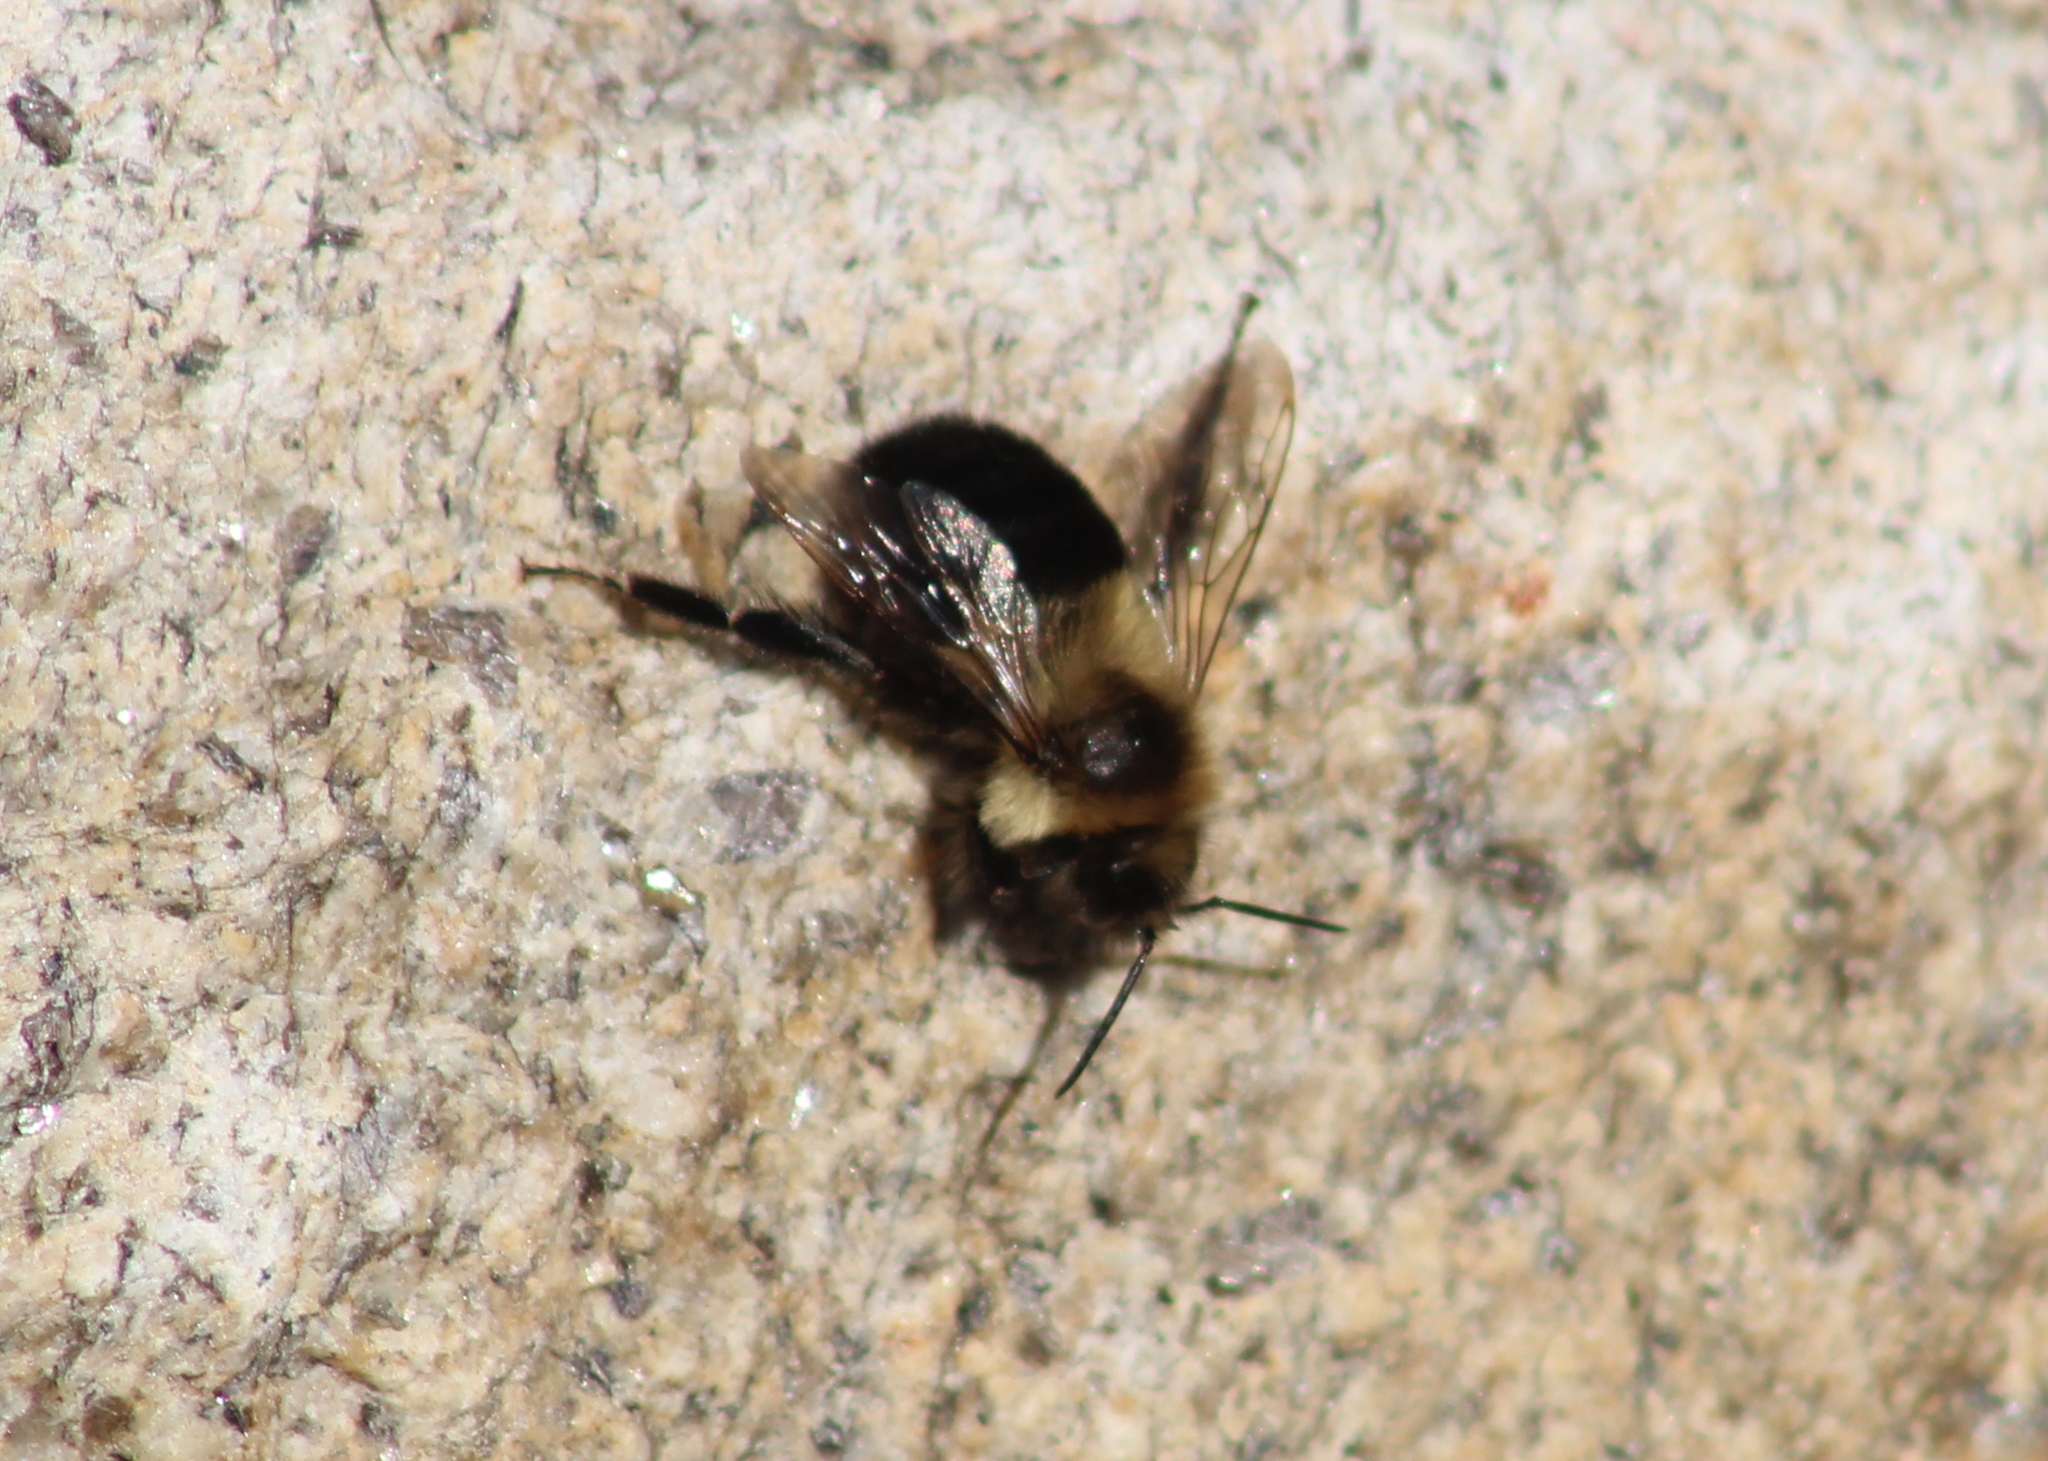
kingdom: Animalia
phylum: Arthropoda
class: Insecta
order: Hymenoptera
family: Apidae
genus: Bombus
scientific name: Bombus impatiens
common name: Common eastern bumble bee
